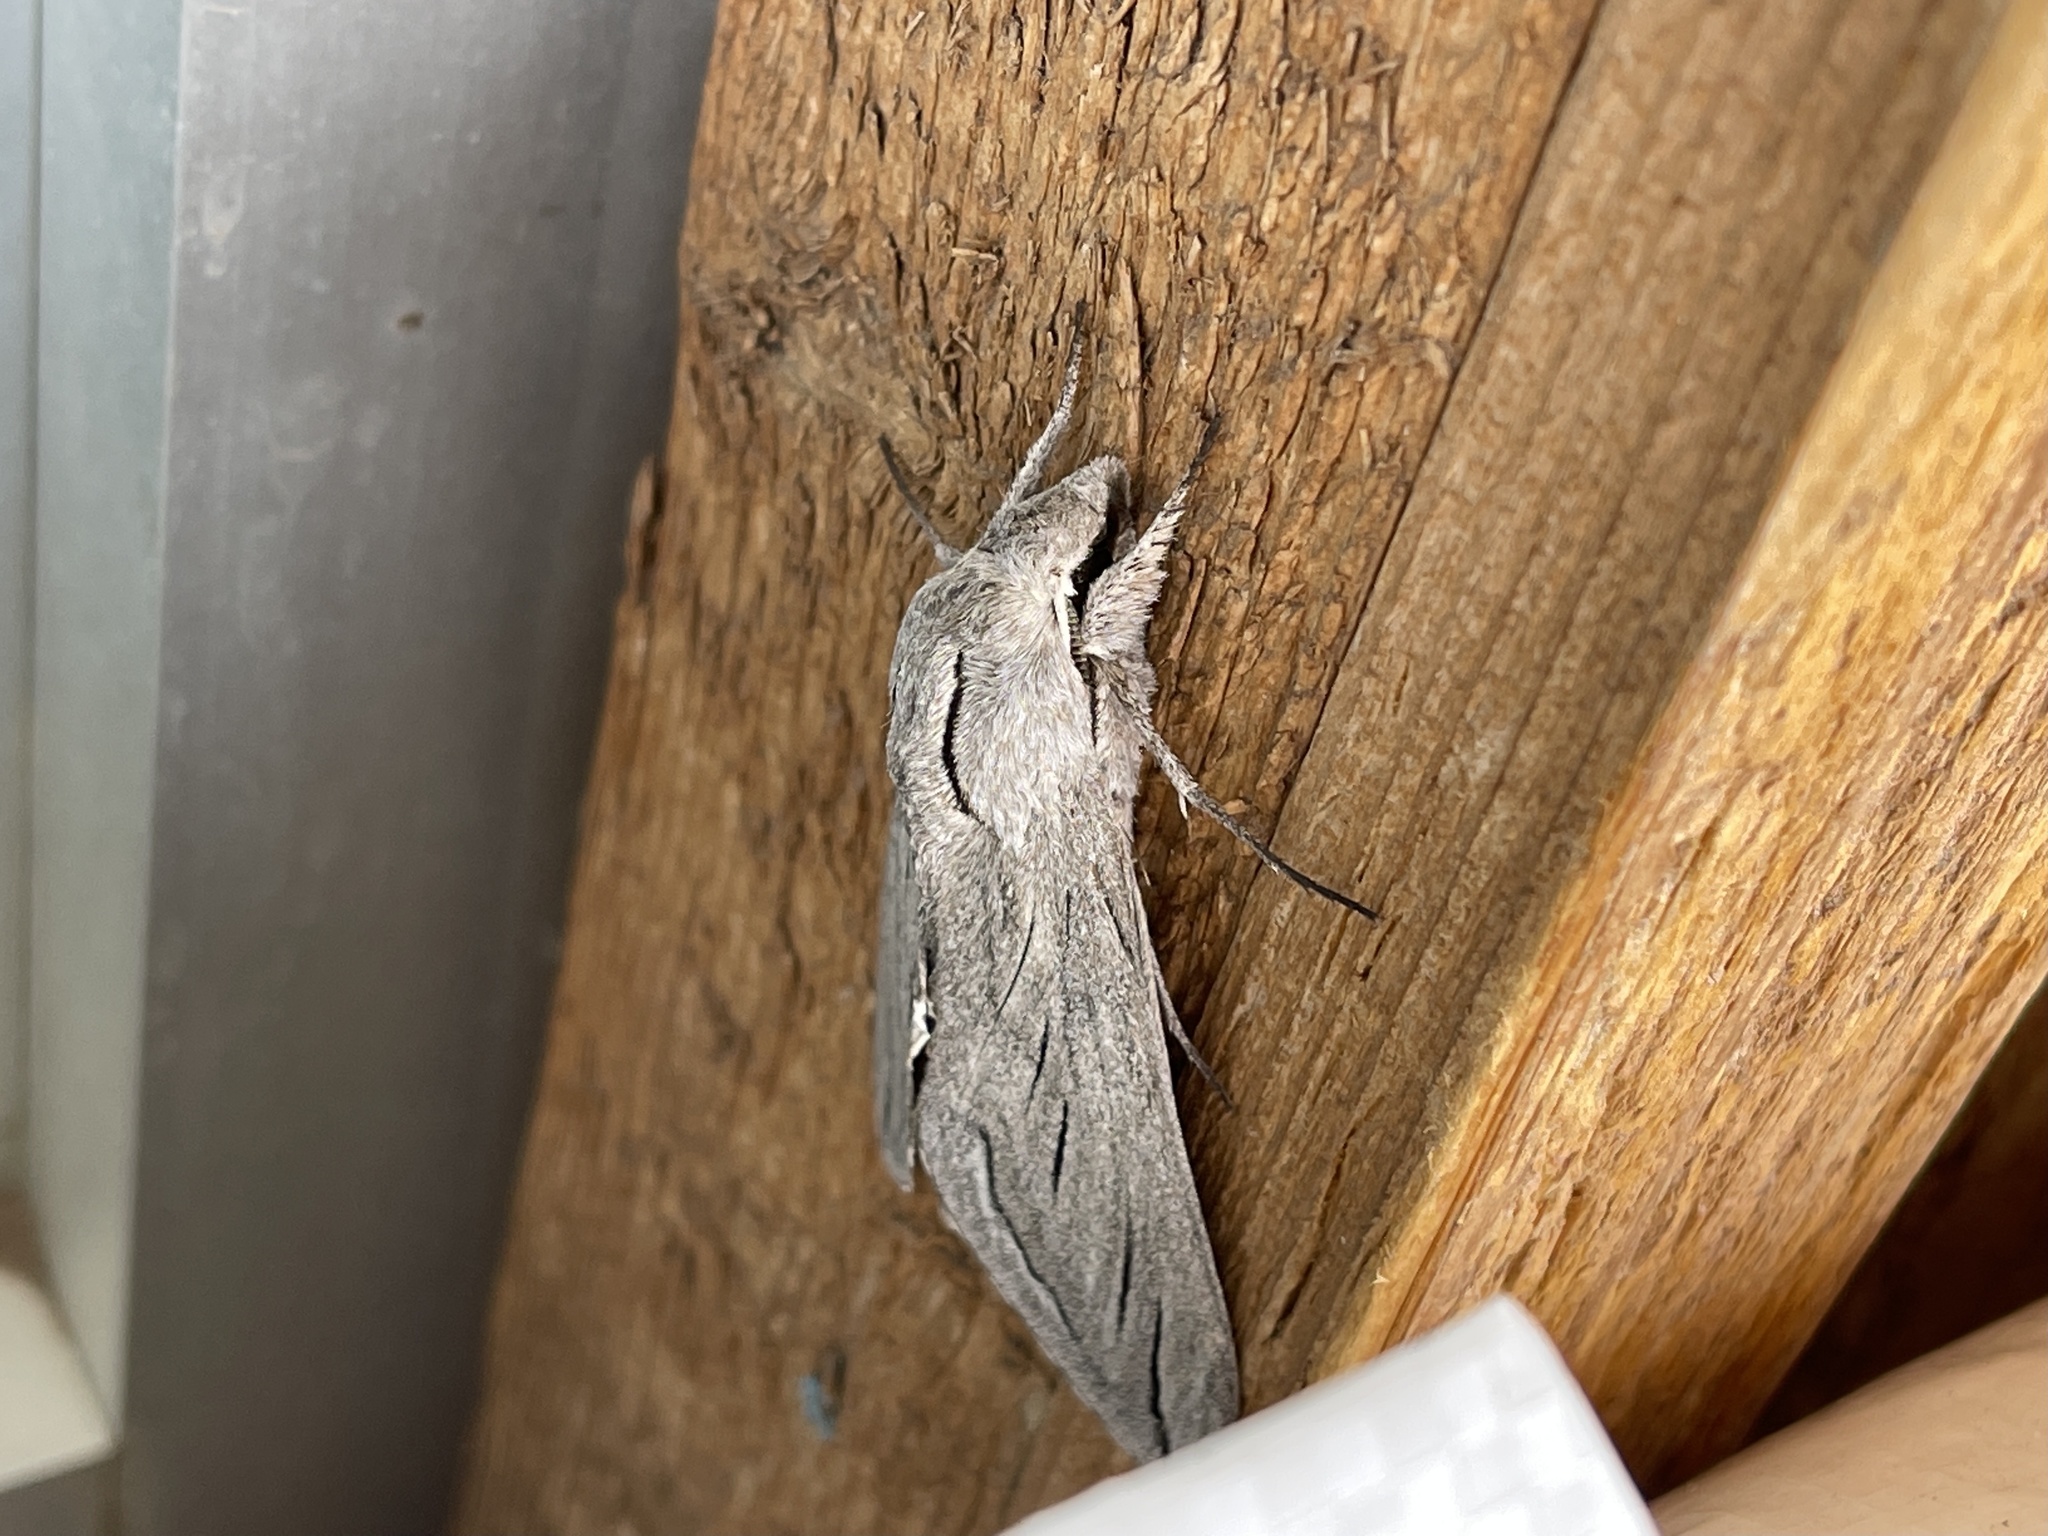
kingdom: Animalia
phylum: Arthropoda
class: Insecta
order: Lepidoptera
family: Sphingidae
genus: Sphinx
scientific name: Sphinx chersis
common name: Great ash sphinx
